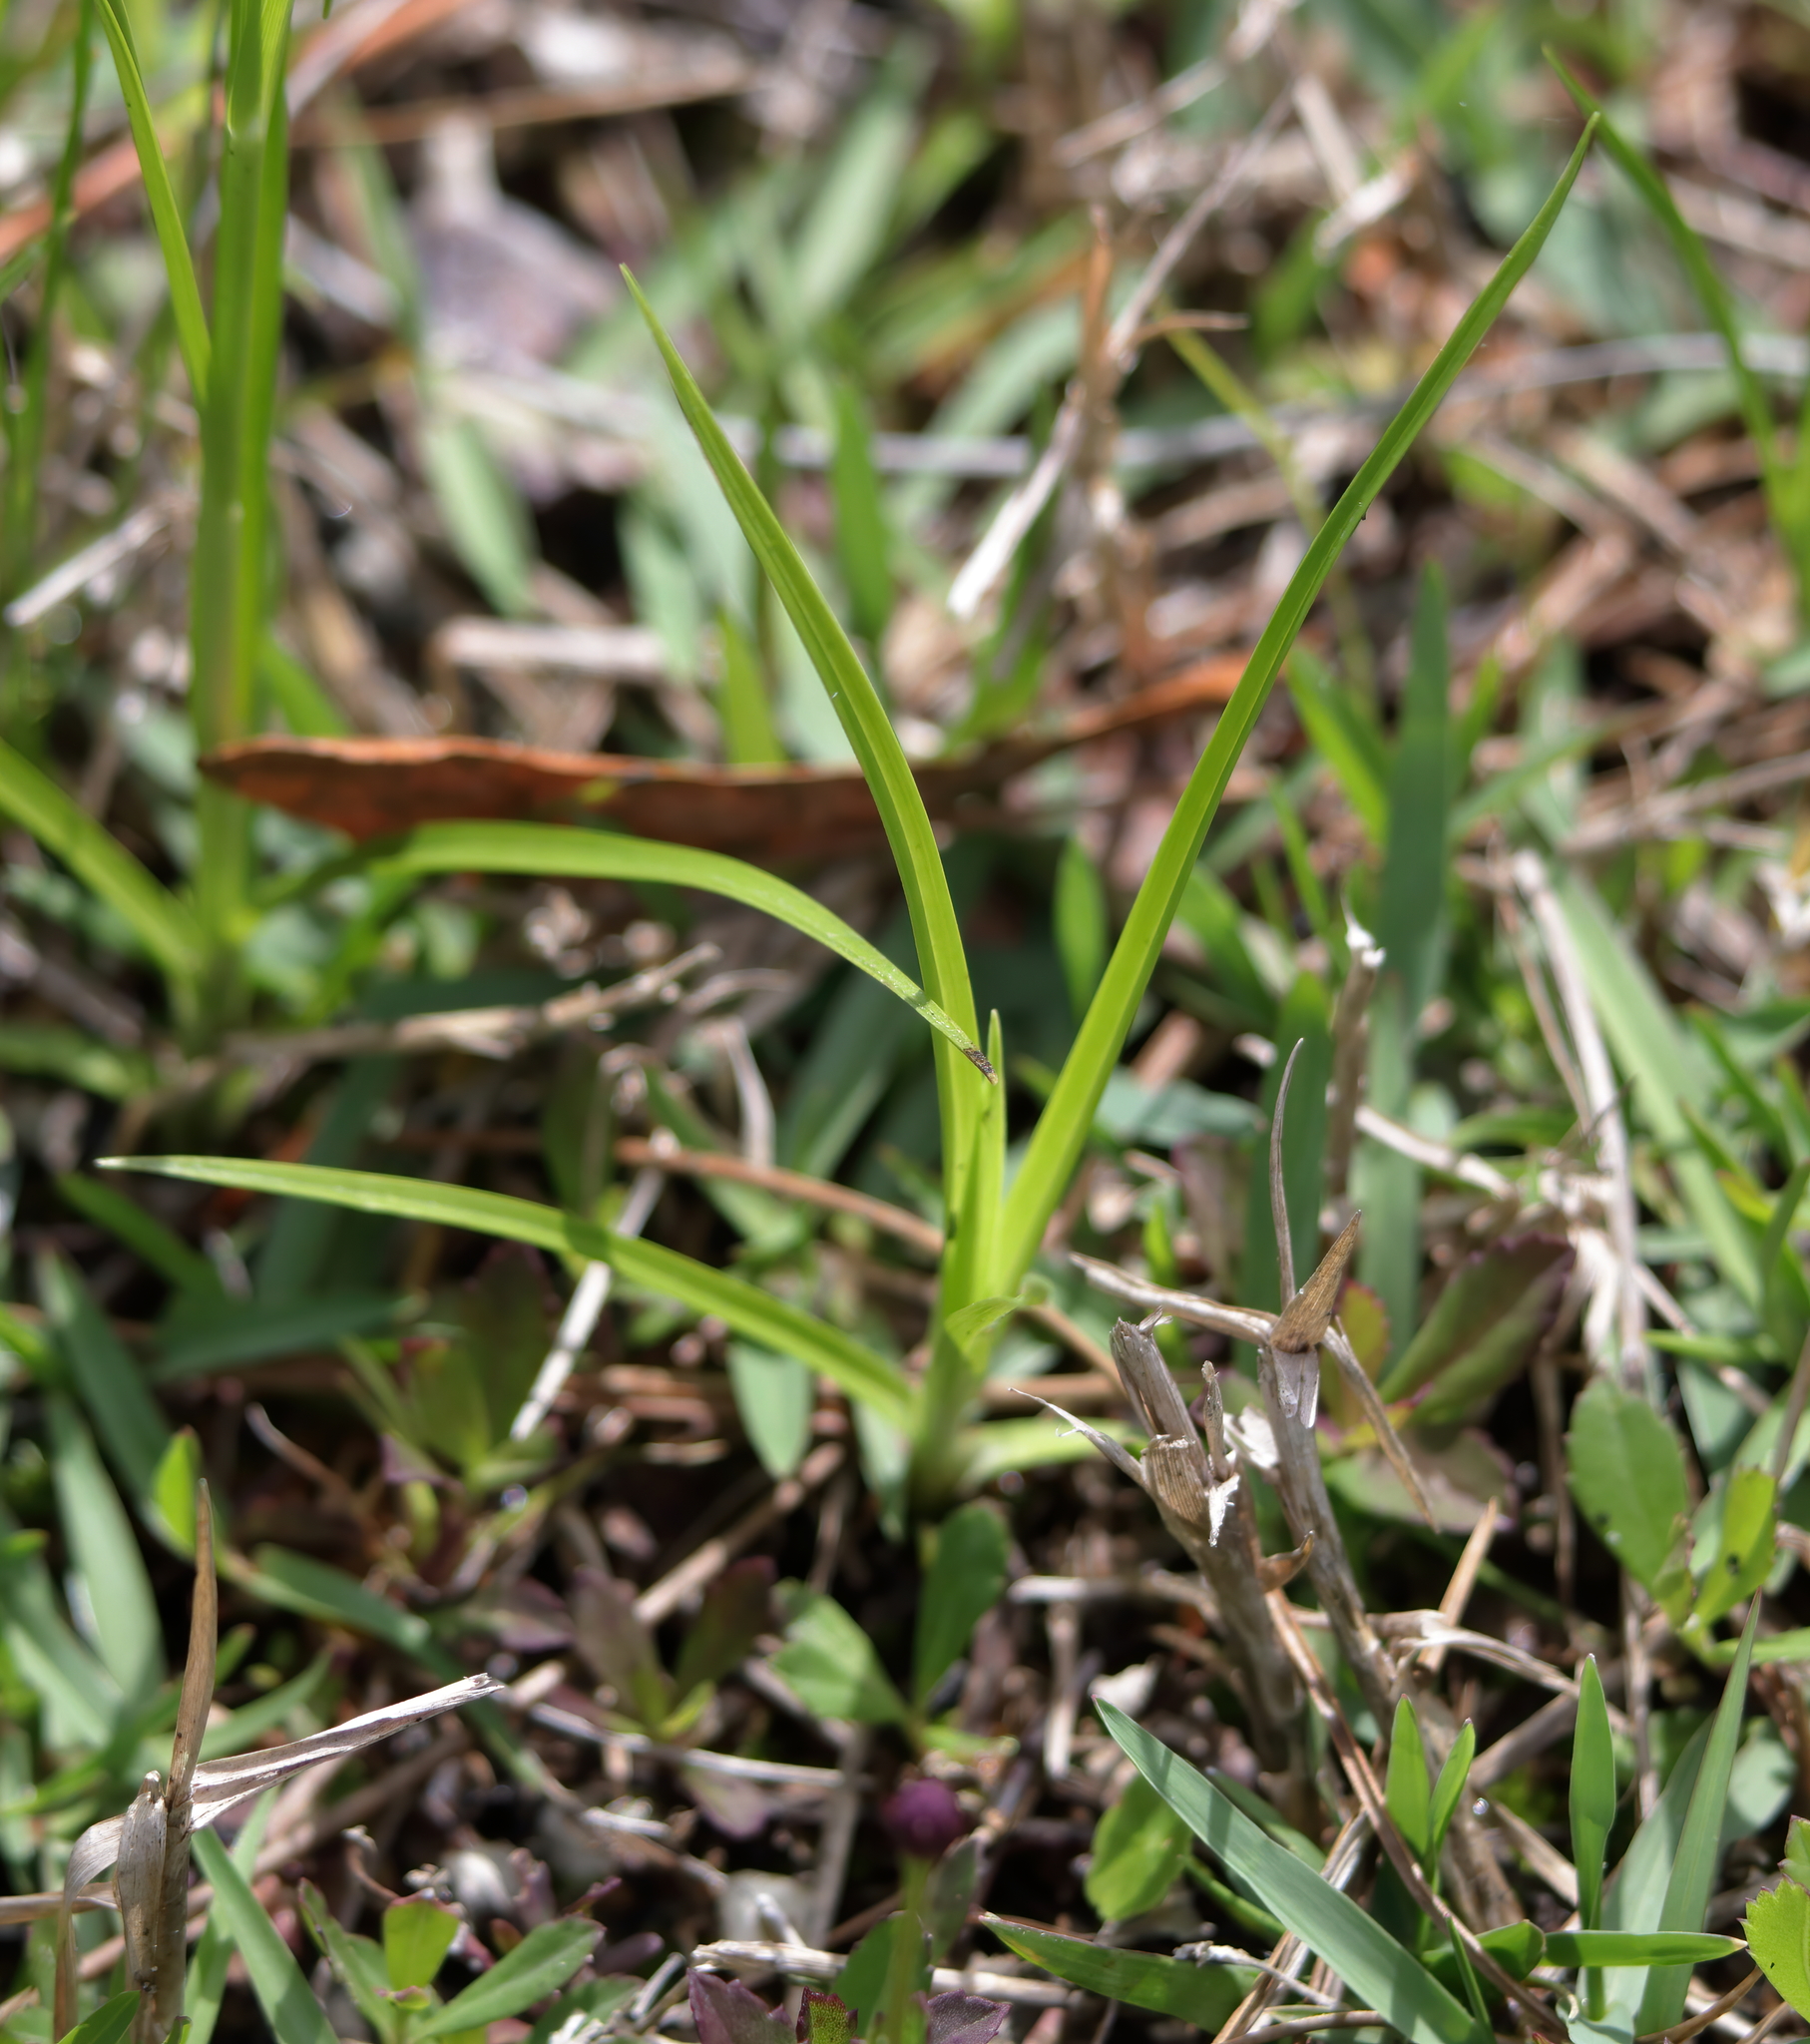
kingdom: Plantae
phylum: Tracheophyta
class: Liliopsida
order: Poales
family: Cyperaceae
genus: Rhynchospora
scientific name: Rhynchospora colorata
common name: Star sedge
